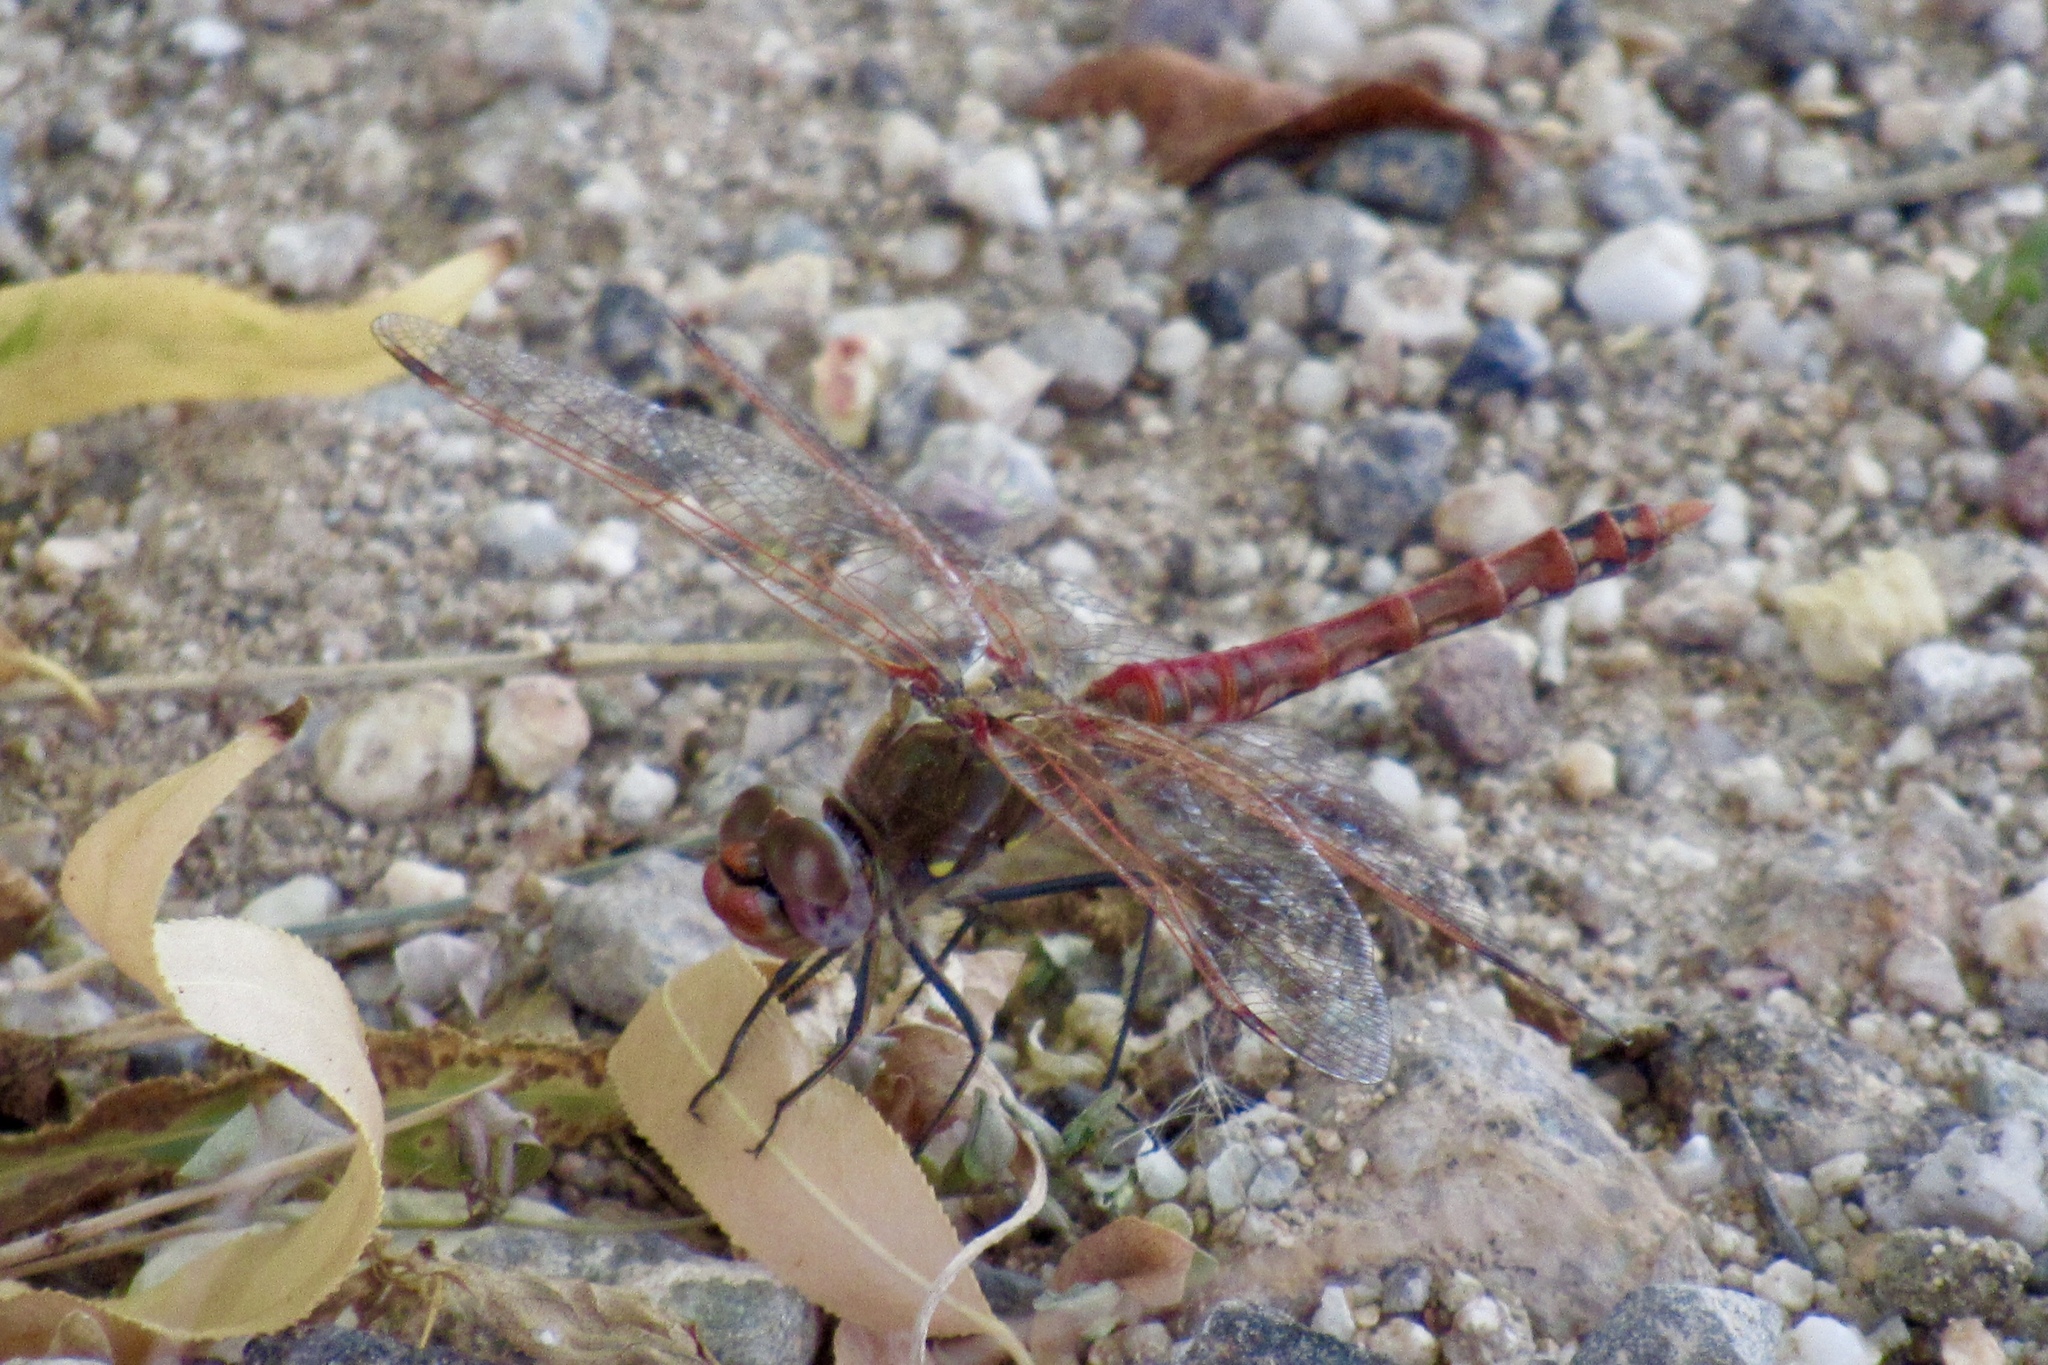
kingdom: Animalia
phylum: Arthropoda
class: Insecta
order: Odonata
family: Libellulidae
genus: Sympetrum
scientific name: Sympetrum corruptum
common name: Variegated meadowhawk
